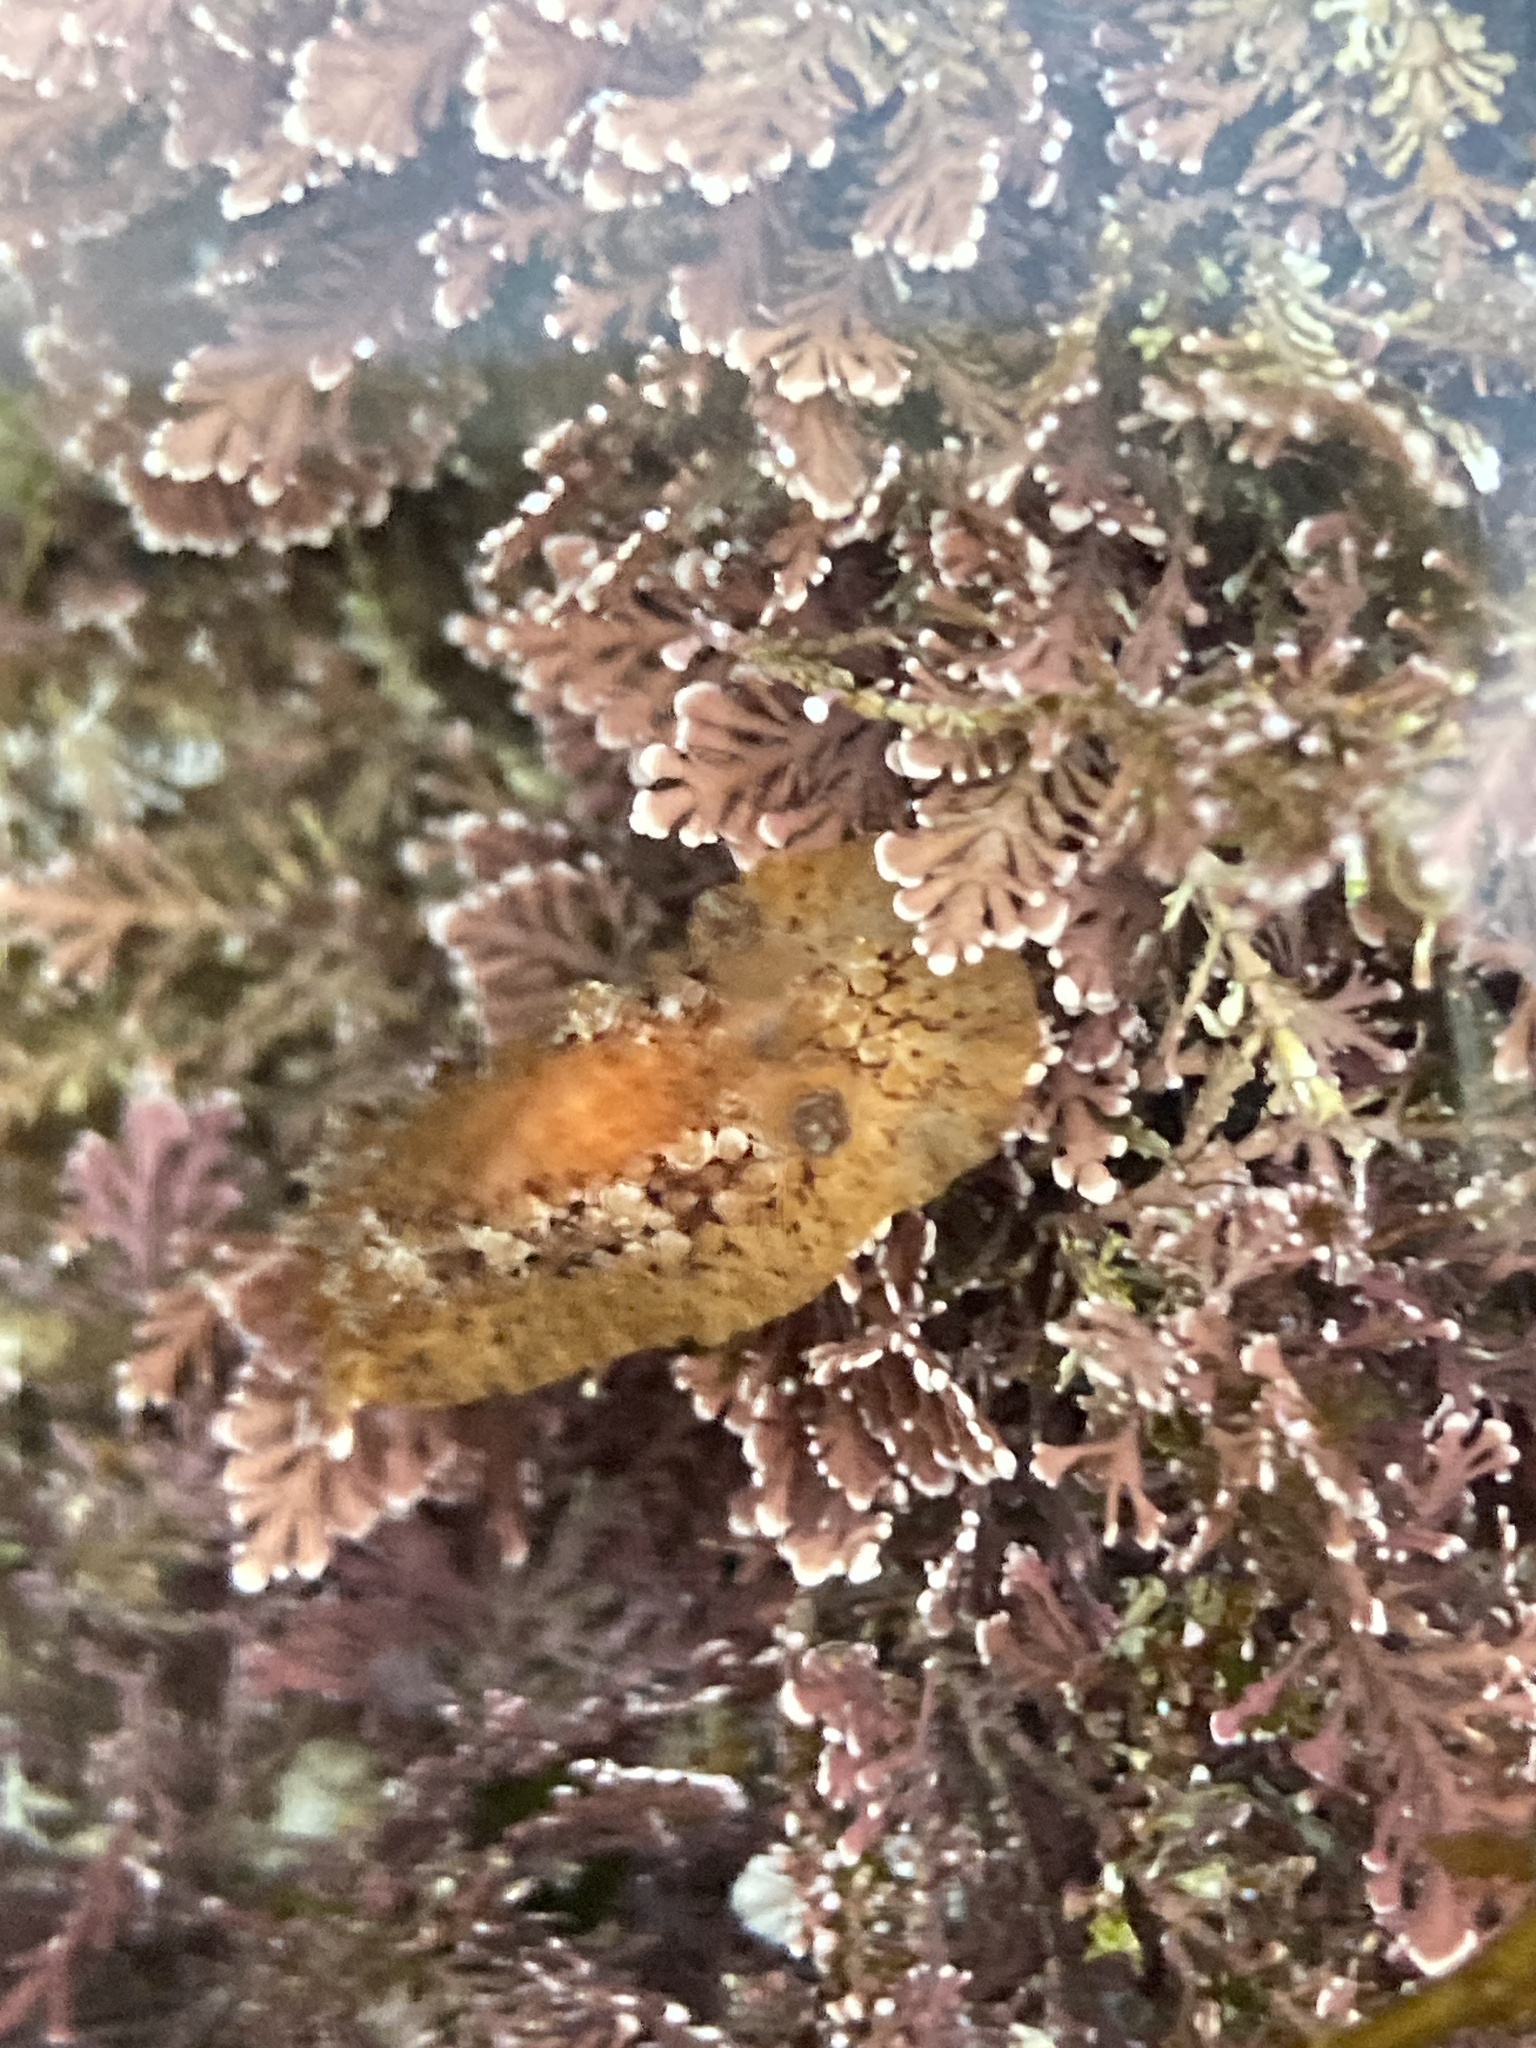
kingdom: Animalia
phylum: Mollusca
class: Gastropoda
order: Nudibranchia
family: Discodorididae
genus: Carminodoris
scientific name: Carminodoris nodulosa
